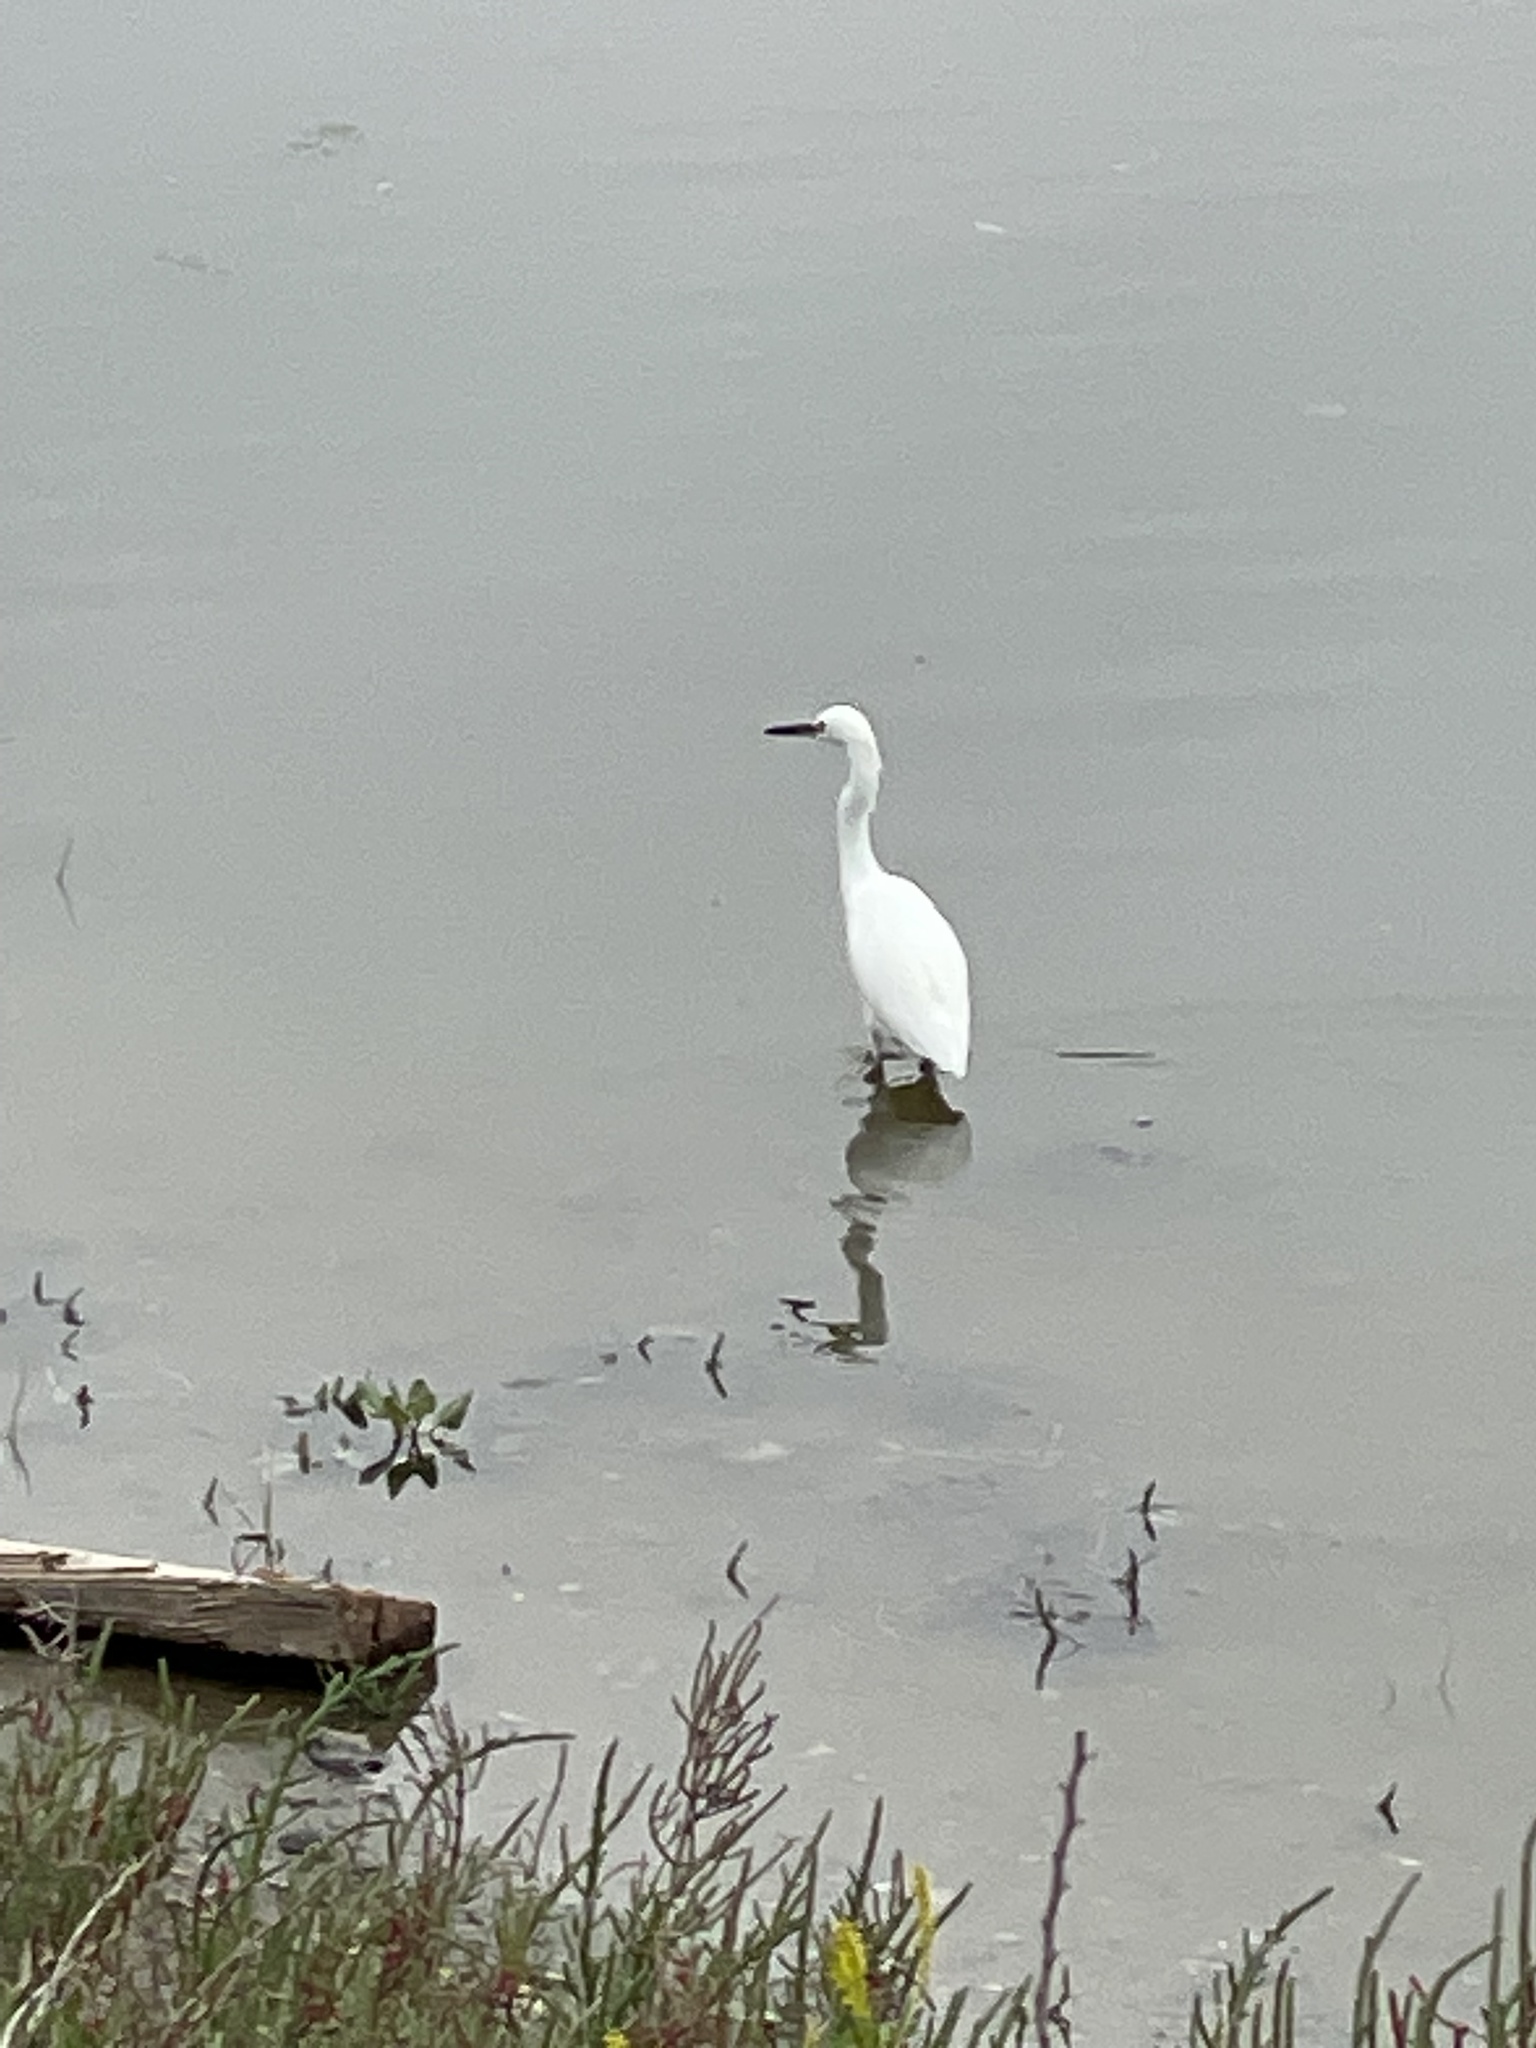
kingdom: Animalia
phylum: Chordata
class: Aves
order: Pelecaniformes
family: Ardeidae
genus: Egretta
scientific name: Egretta thula
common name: Snowy egret
